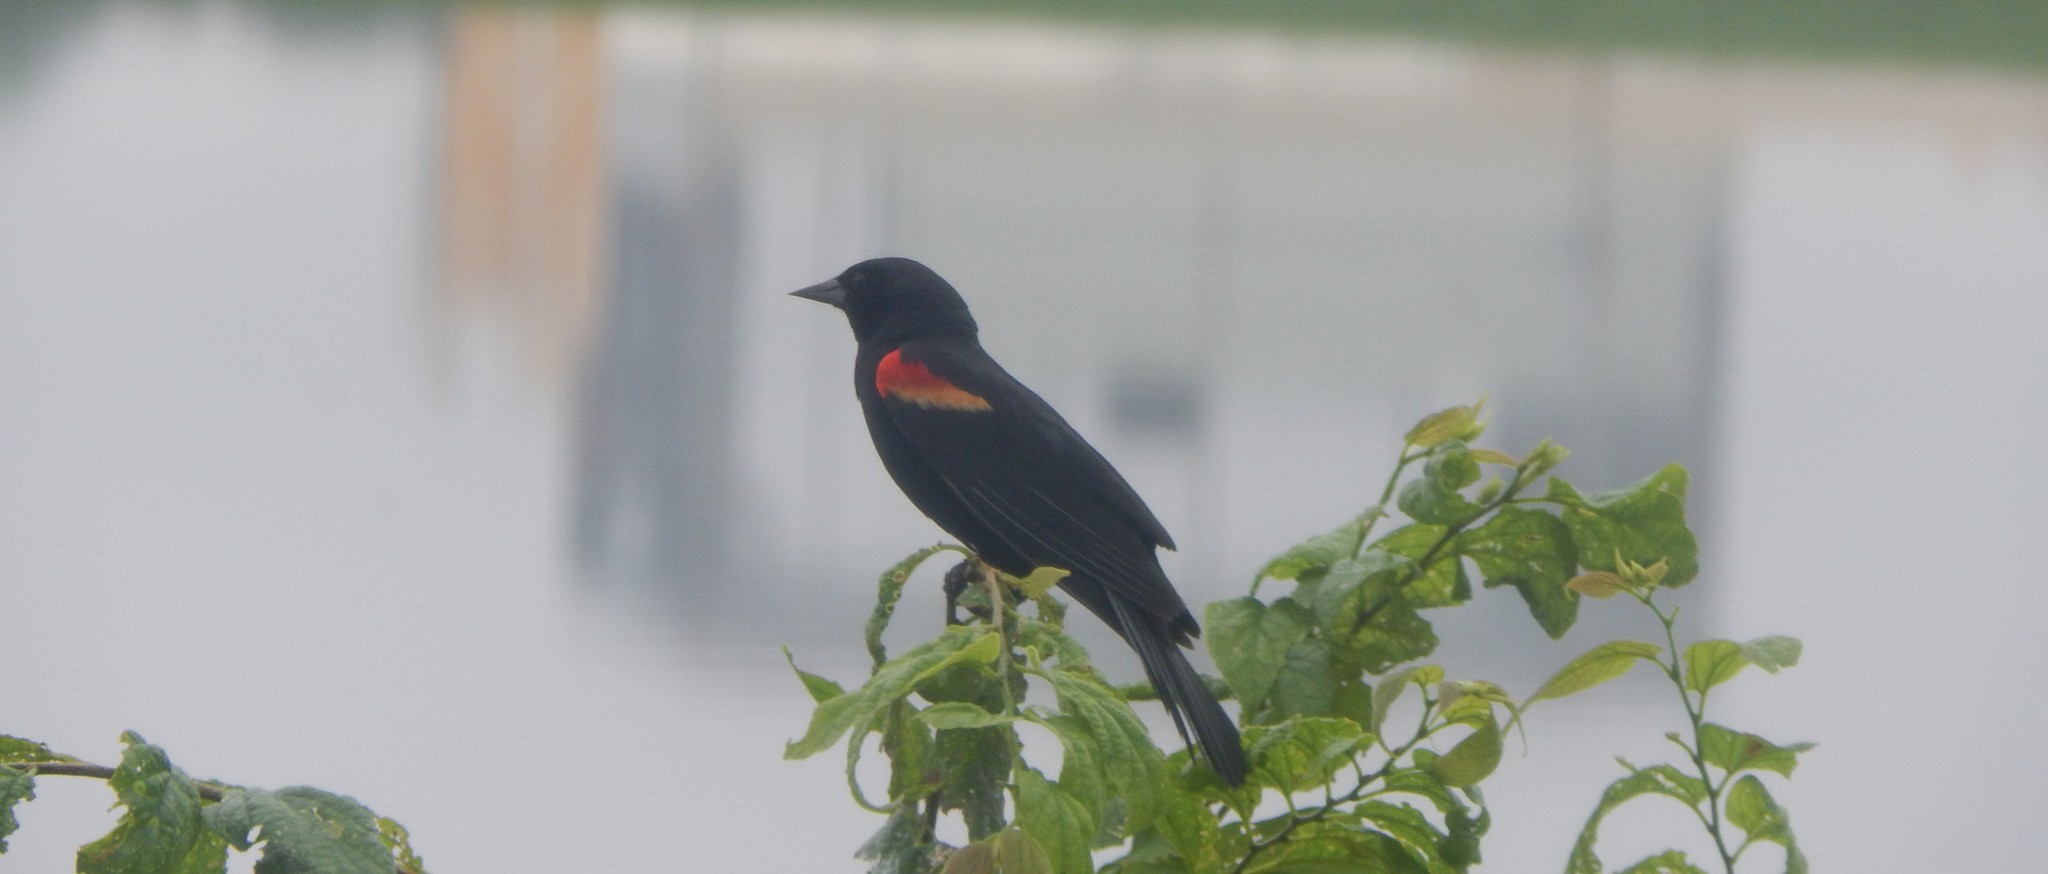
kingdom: Animalia
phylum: Chordata
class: Aves
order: Passeriformes
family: Icteridae
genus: Agelaius
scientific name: Agelaius phoeniceus
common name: Red-winged blackbird
